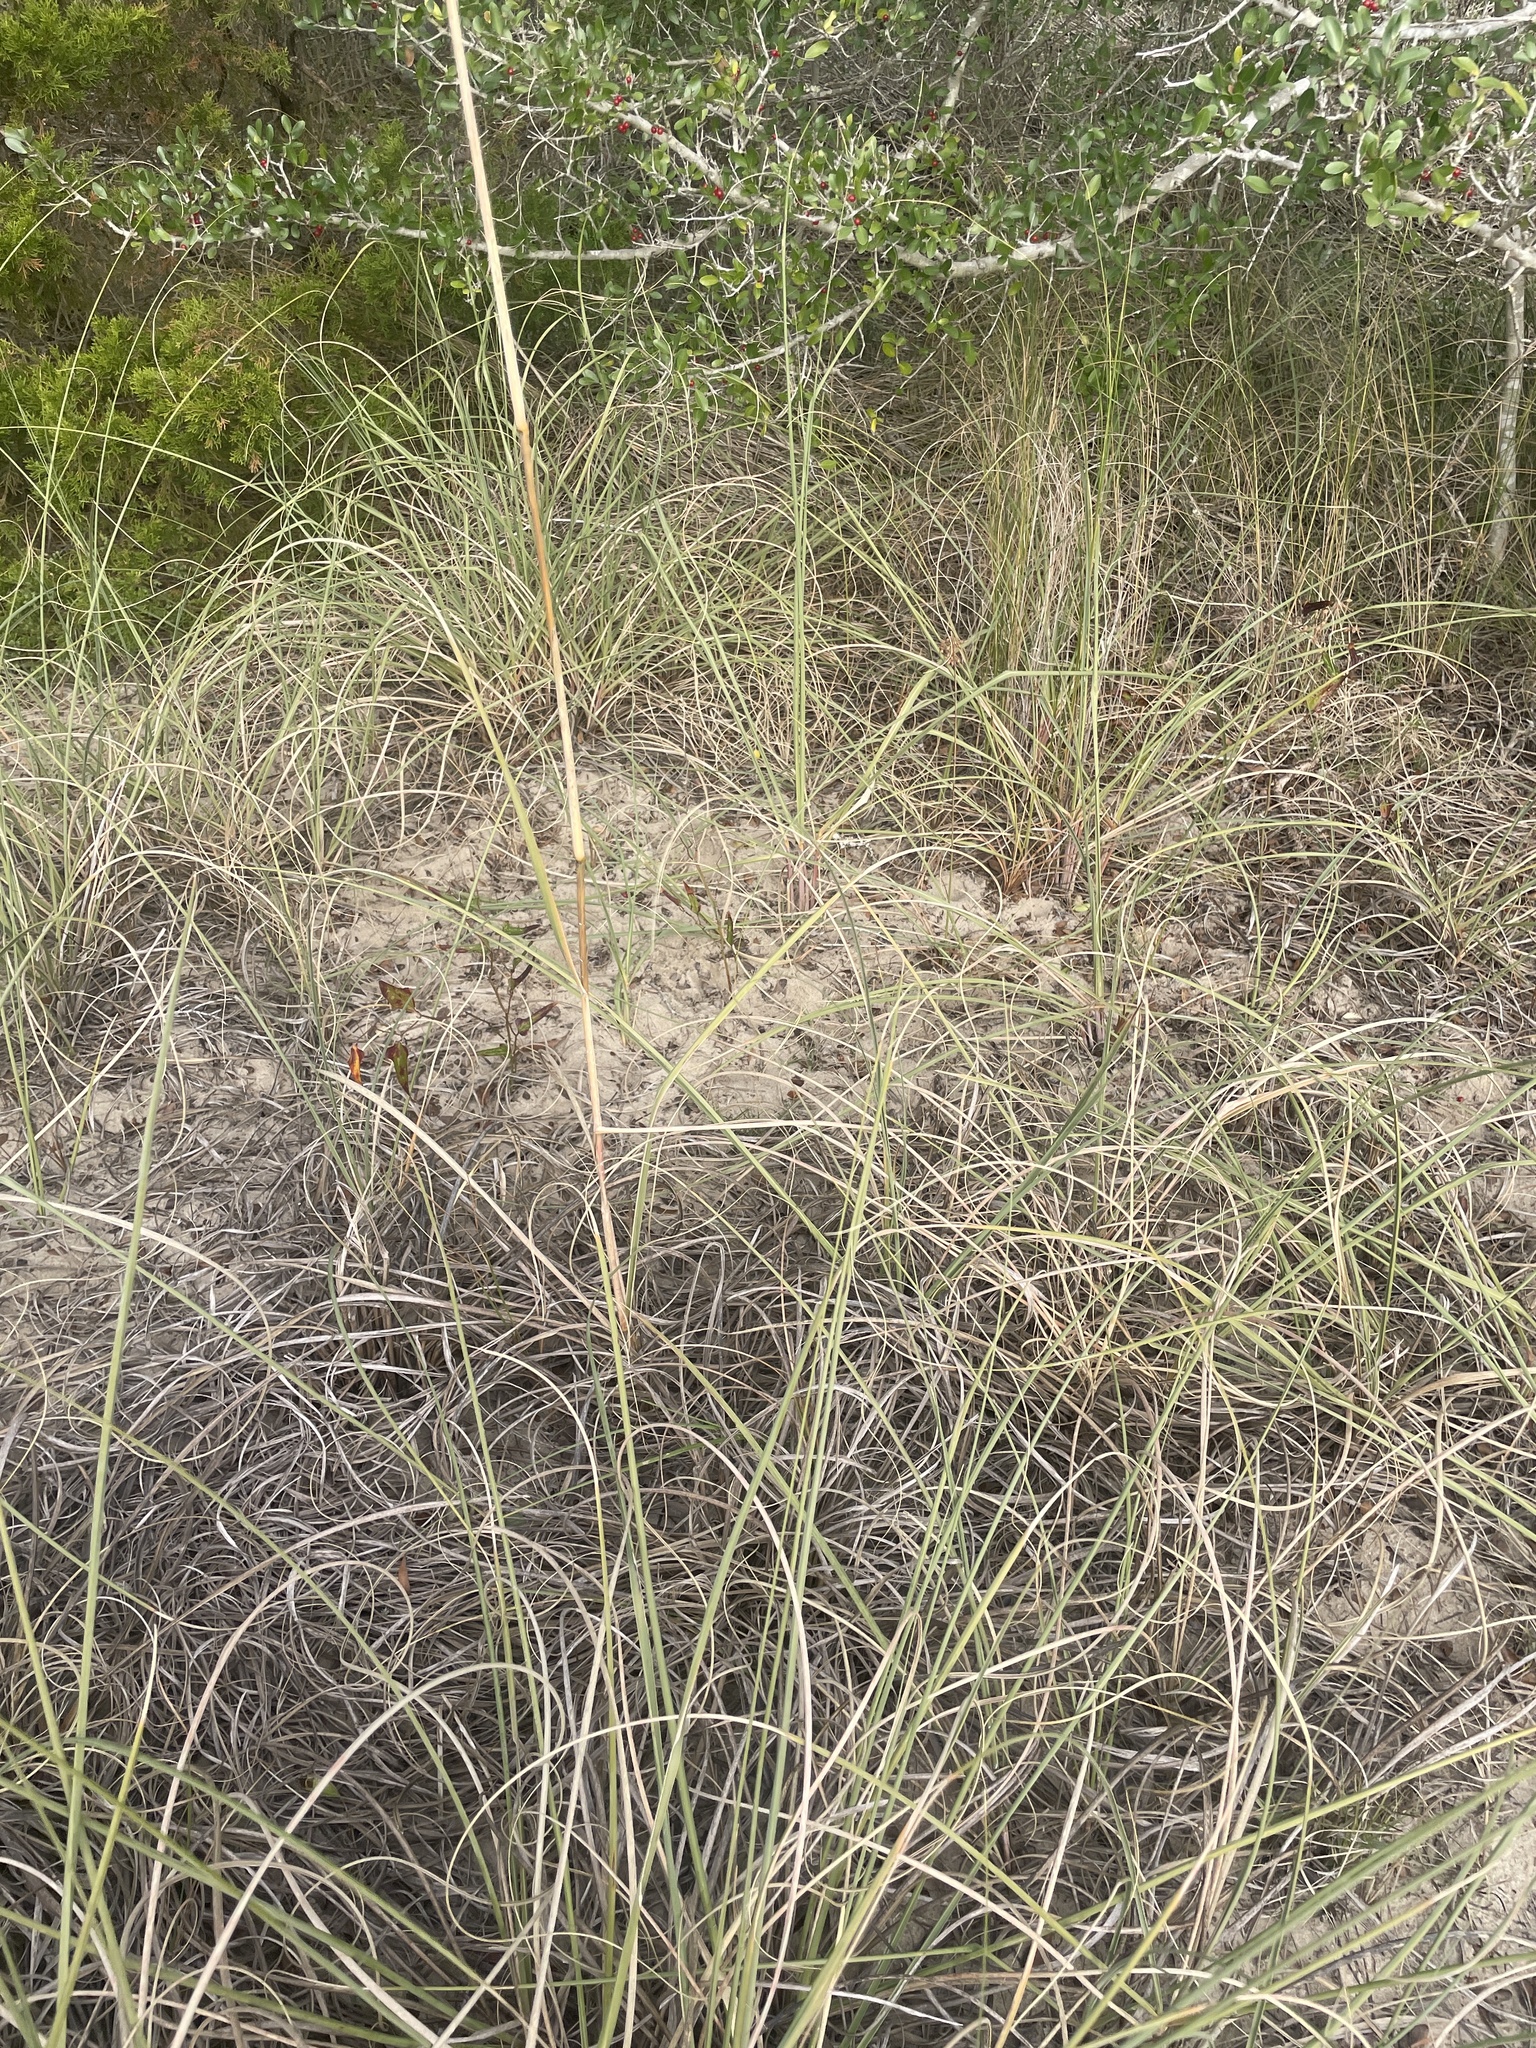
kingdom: Plantae
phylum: Tracheophyta
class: Liliopsida
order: Poales
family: Poaceae
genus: Uniola
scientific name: Uniola paniculata
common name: Seaside-oats
